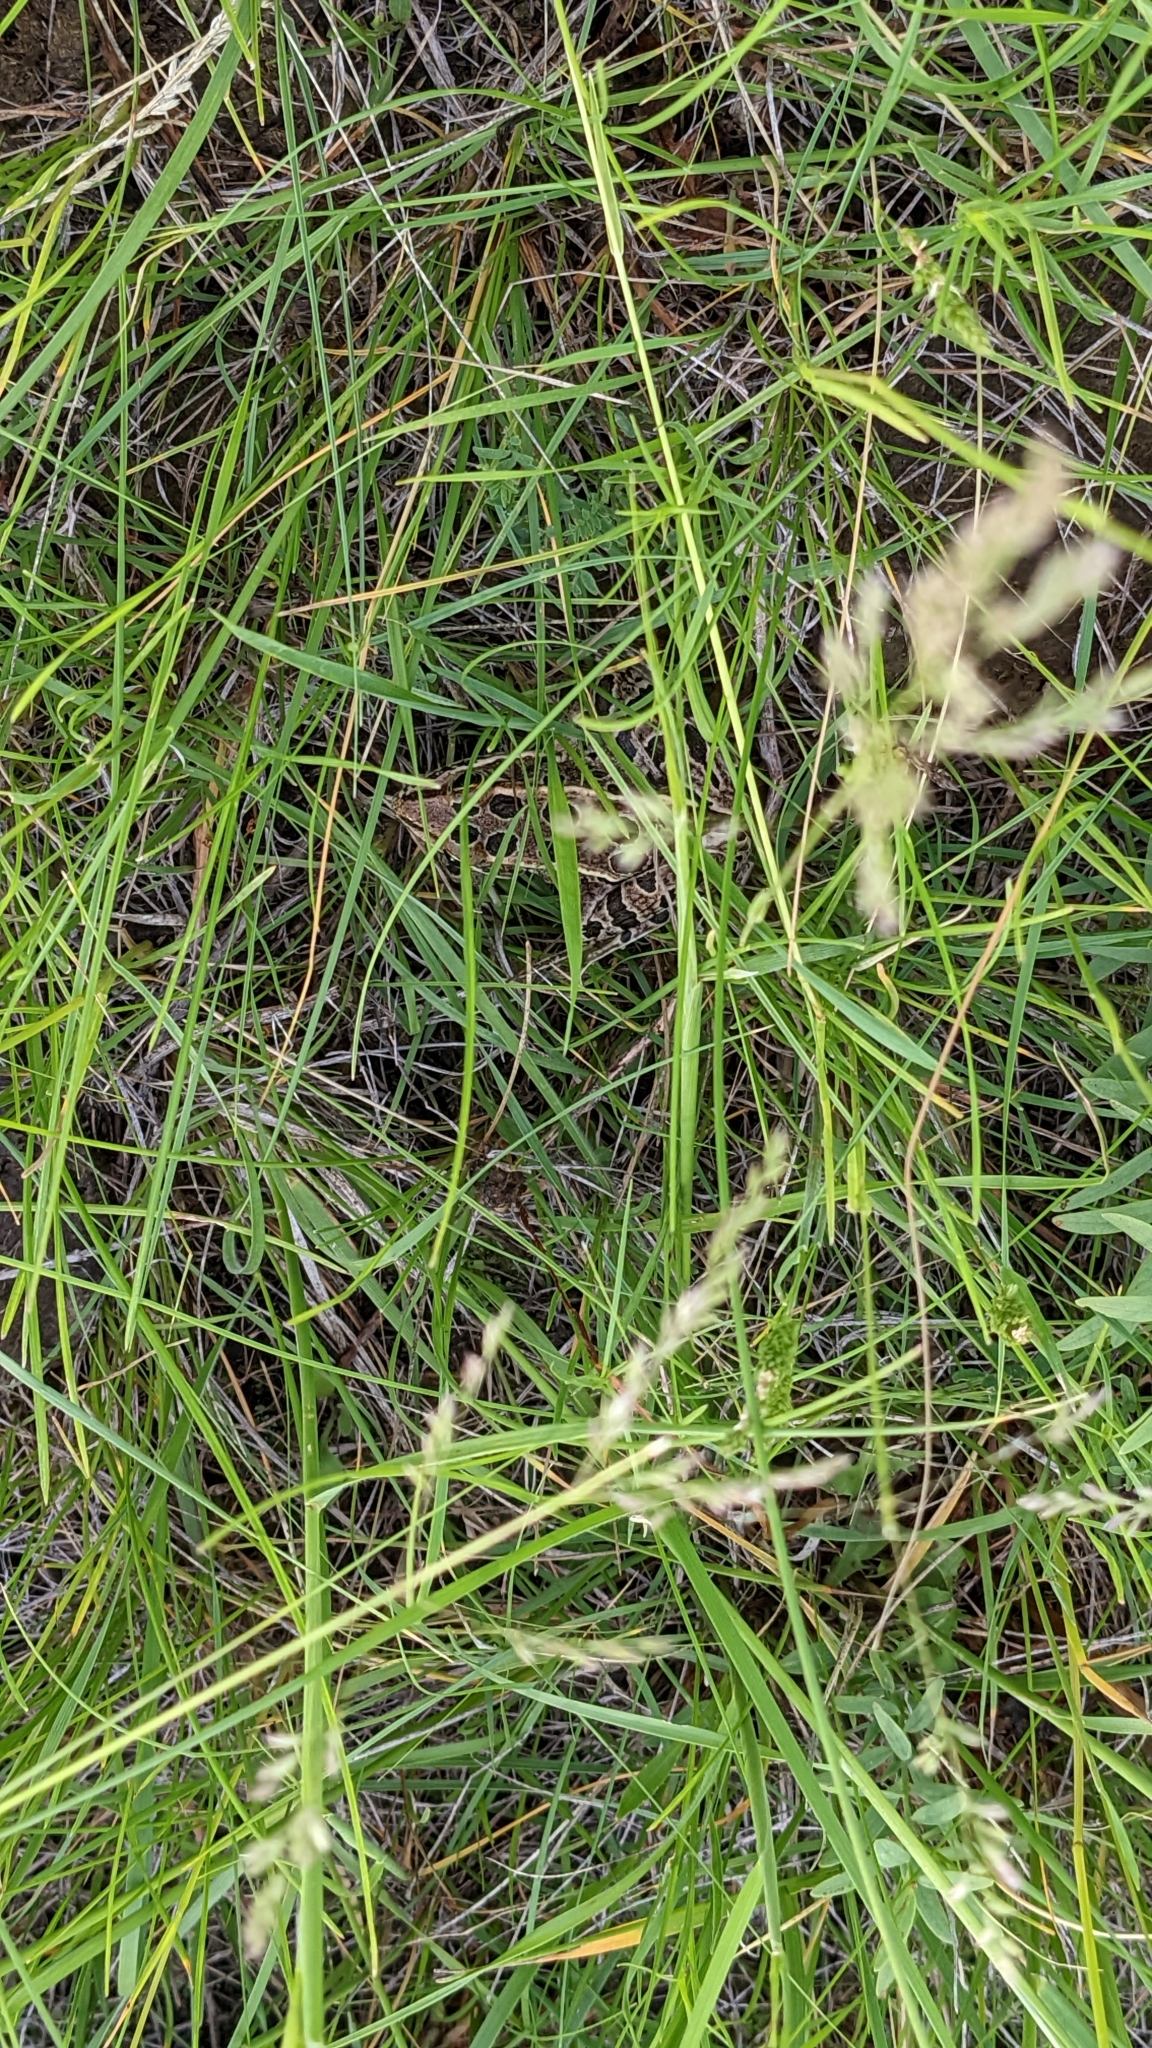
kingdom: Animalia
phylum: Chordata
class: Amphibia
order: Anura
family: Ranidae
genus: Lithobates
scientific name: Lithobates pipiens
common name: Northern leopard frog
